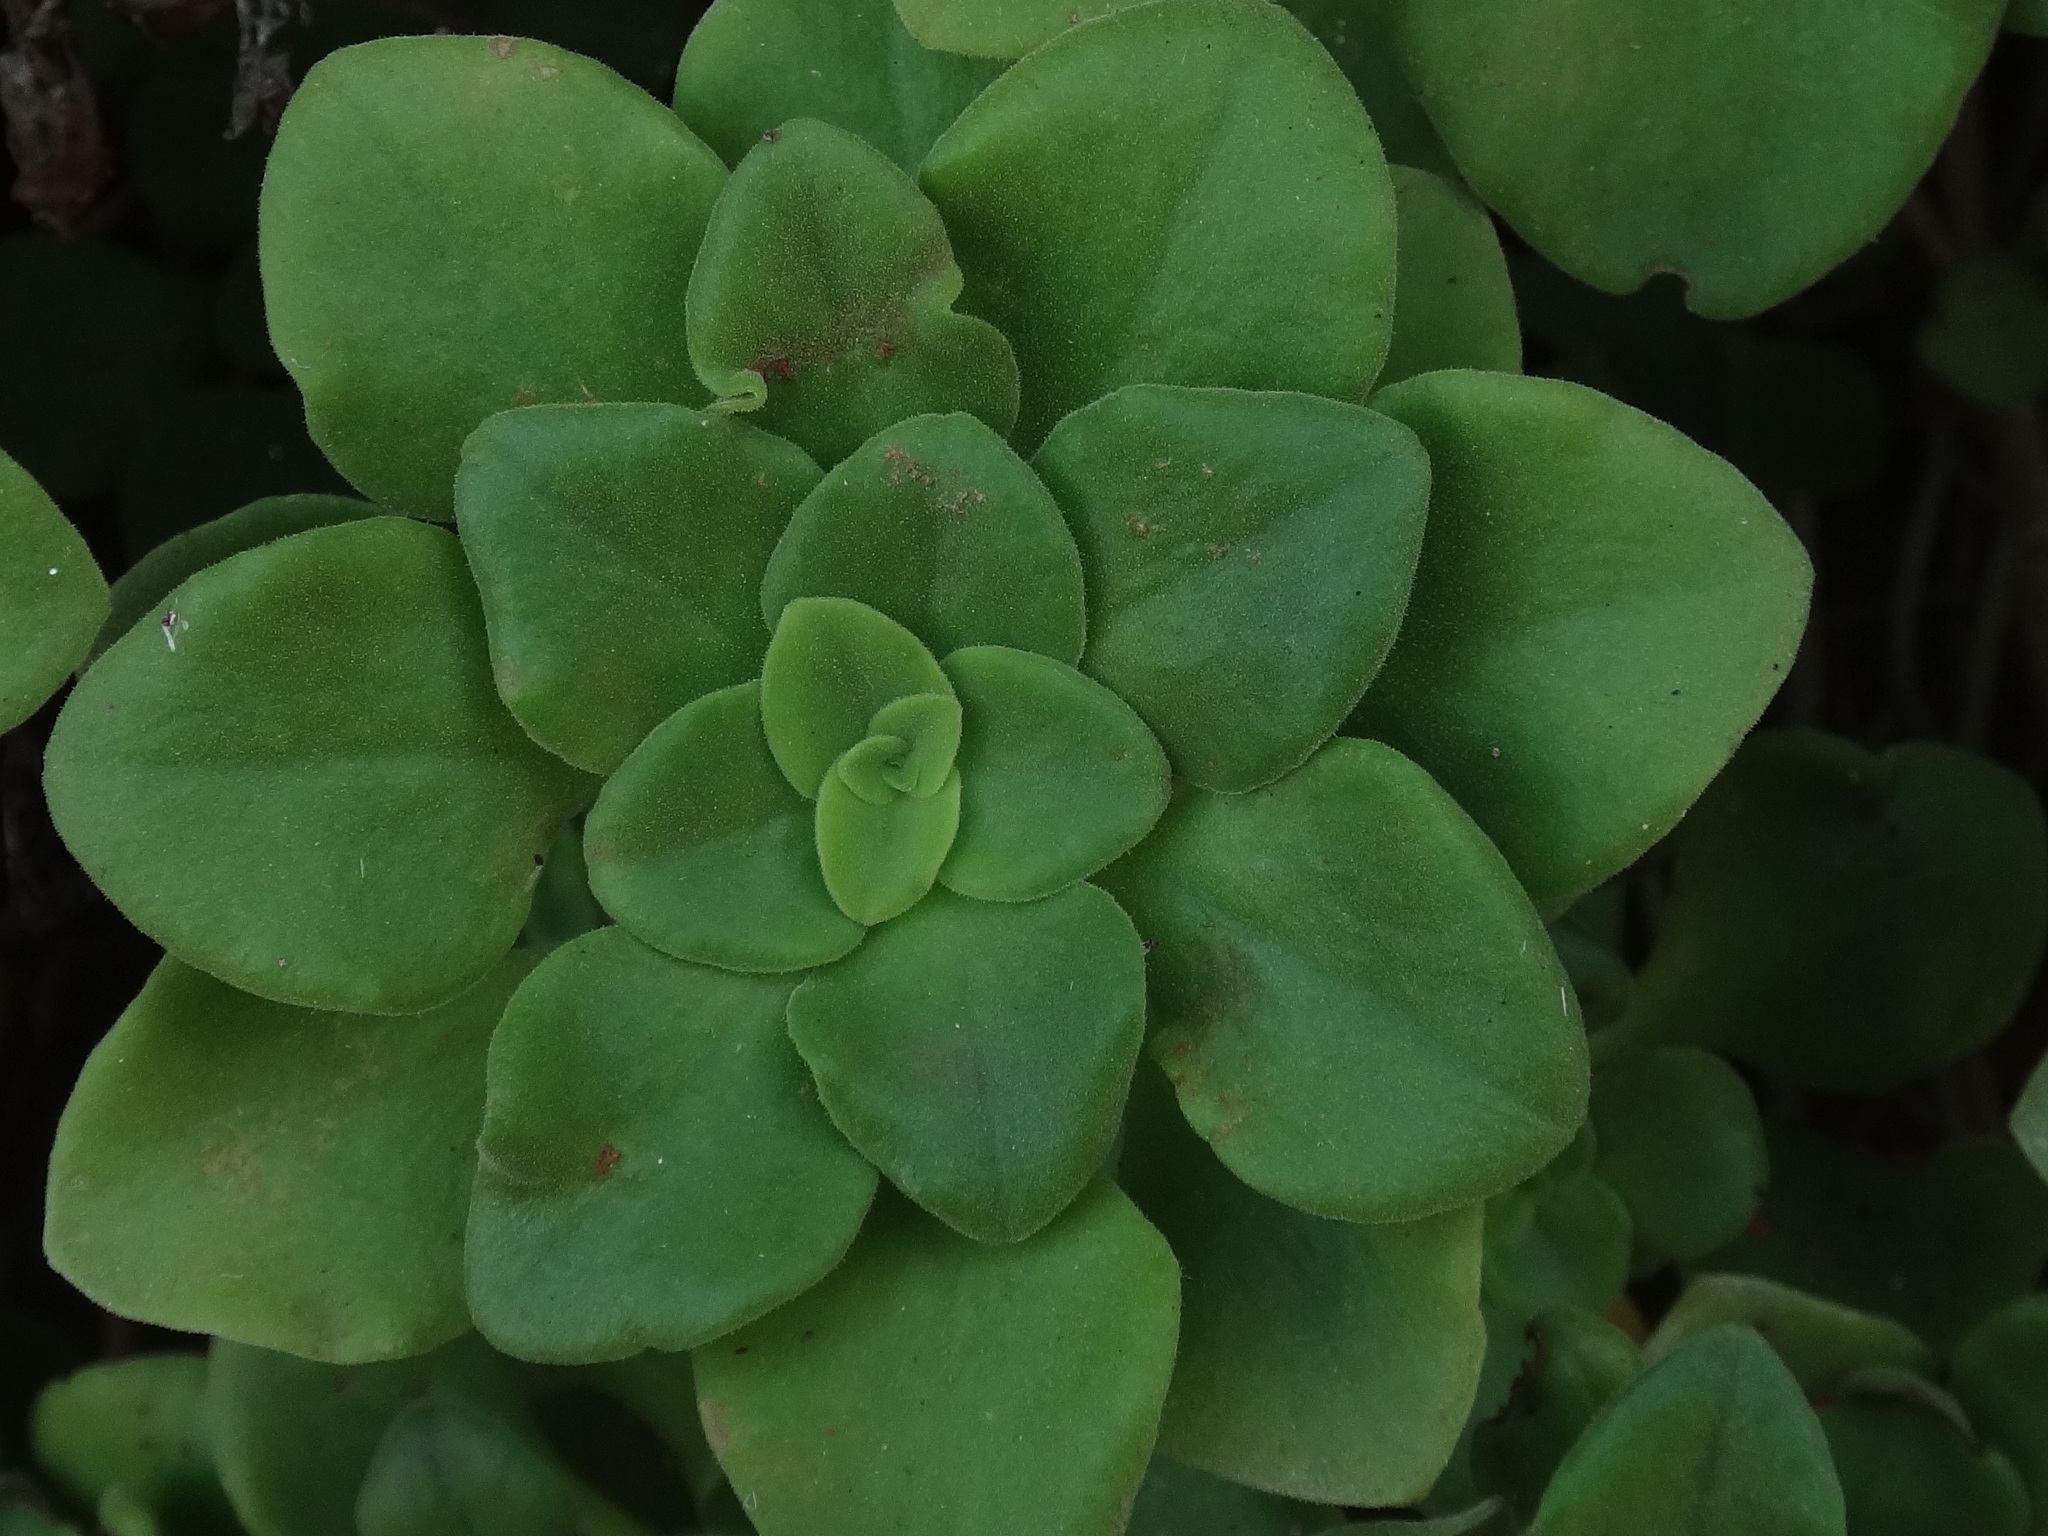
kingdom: Plantae
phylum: Tracheophyta
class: Magnoliopsida
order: Saxifragales
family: Crassulaceae
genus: Aeonium
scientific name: Aeonium goochiae
